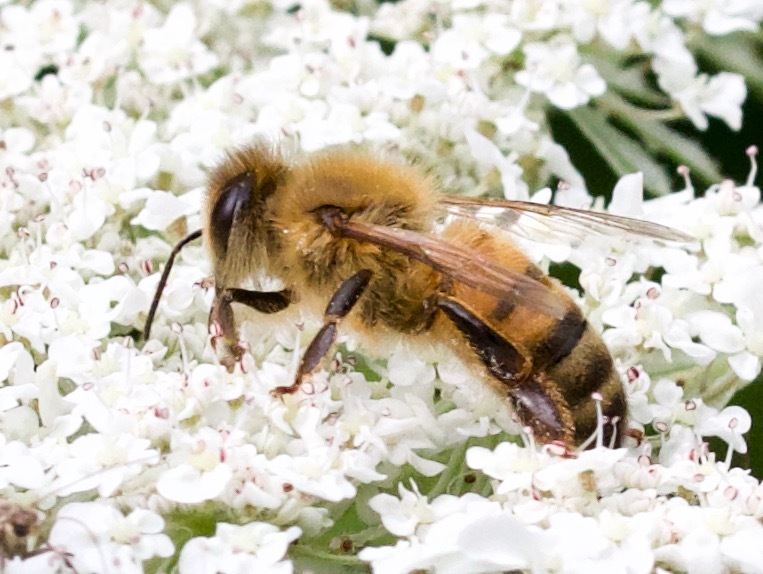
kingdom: Animalia
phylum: Arthropoda
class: Insecta
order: Hymenoptera
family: Apidae
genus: Apis
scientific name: Apis mellifera
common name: Honey bee
